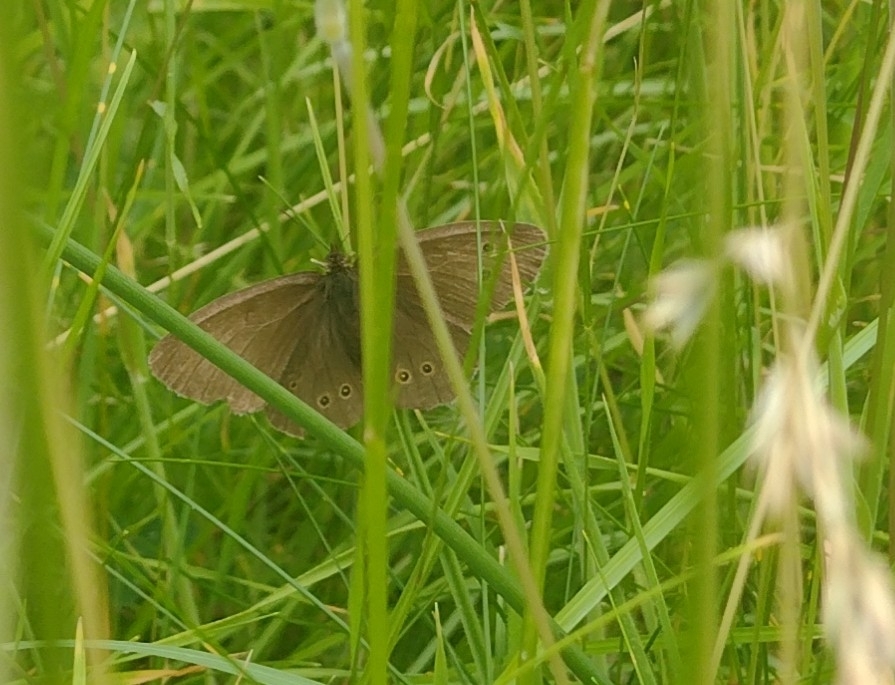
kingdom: Animalia
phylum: Arthropoda
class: Insecta
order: Lepidoptera
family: Nymphalidae
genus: Aphantopus
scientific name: Aphantopus hyperantus
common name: Ringlet
